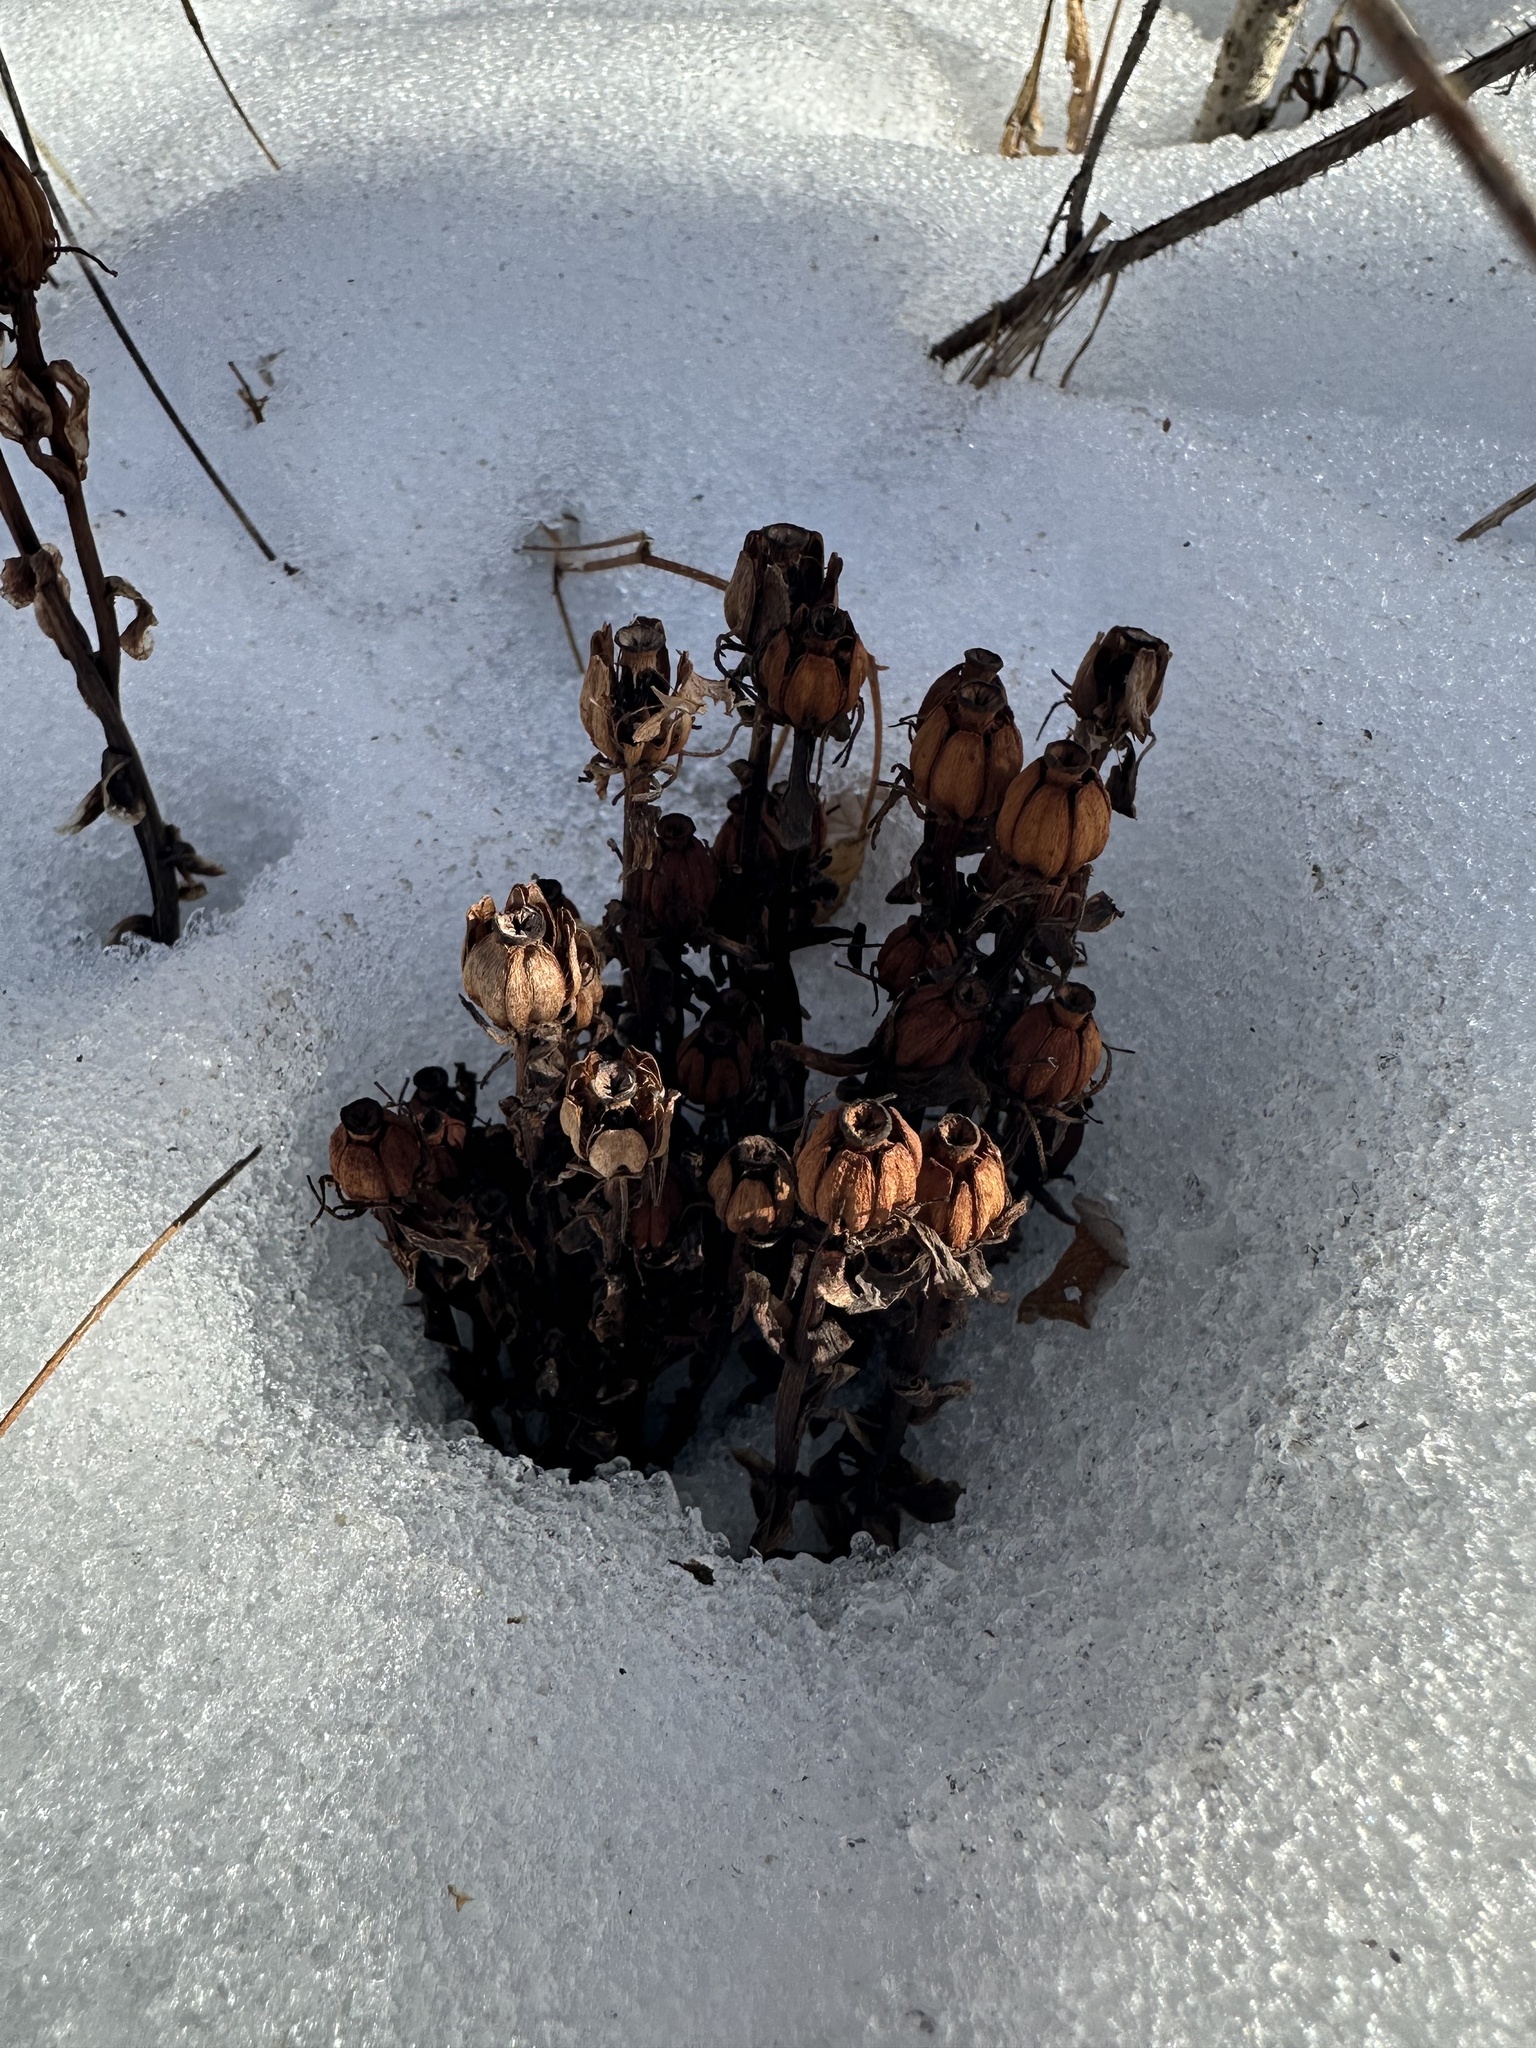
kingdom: Plantae
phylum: Tracheophyta
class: Magnoliopsida
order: Ericales
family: Ericaceae
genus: Monotropa
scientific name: Monotropa uniflora
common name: Convulsion root
